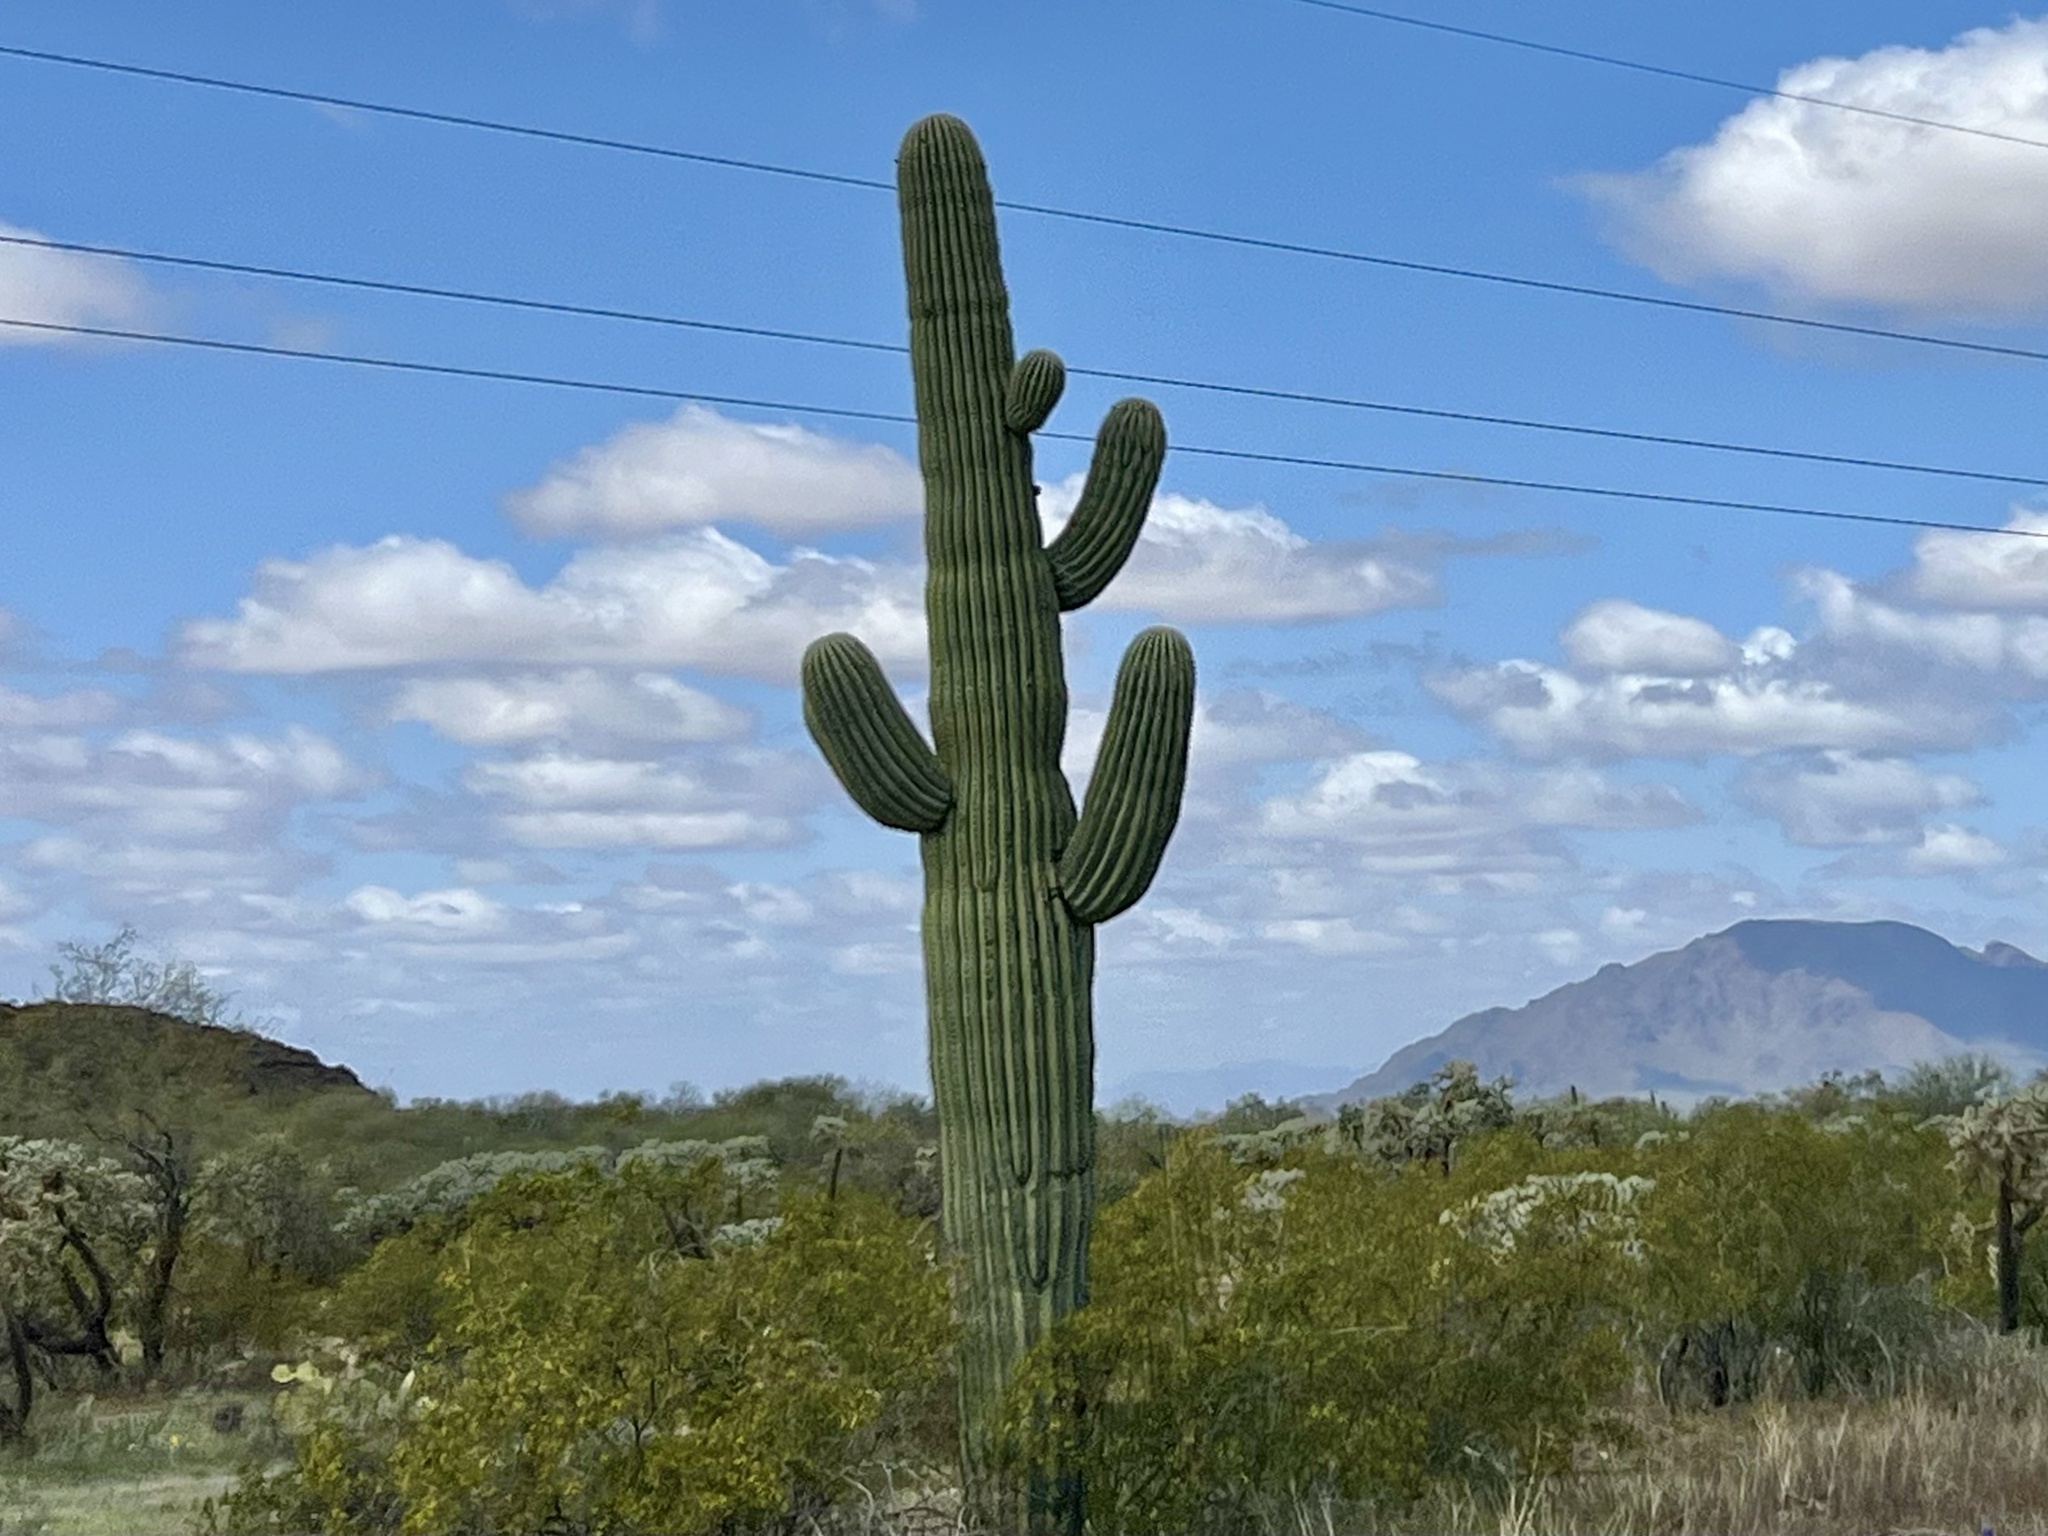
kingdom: Plantae
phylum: Tracheophyta
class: Magnoliopsida
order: Caryophyllales
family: Cactaceae
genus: Carnegiea
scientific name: Carnegiea gigantea
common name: Saguaro
